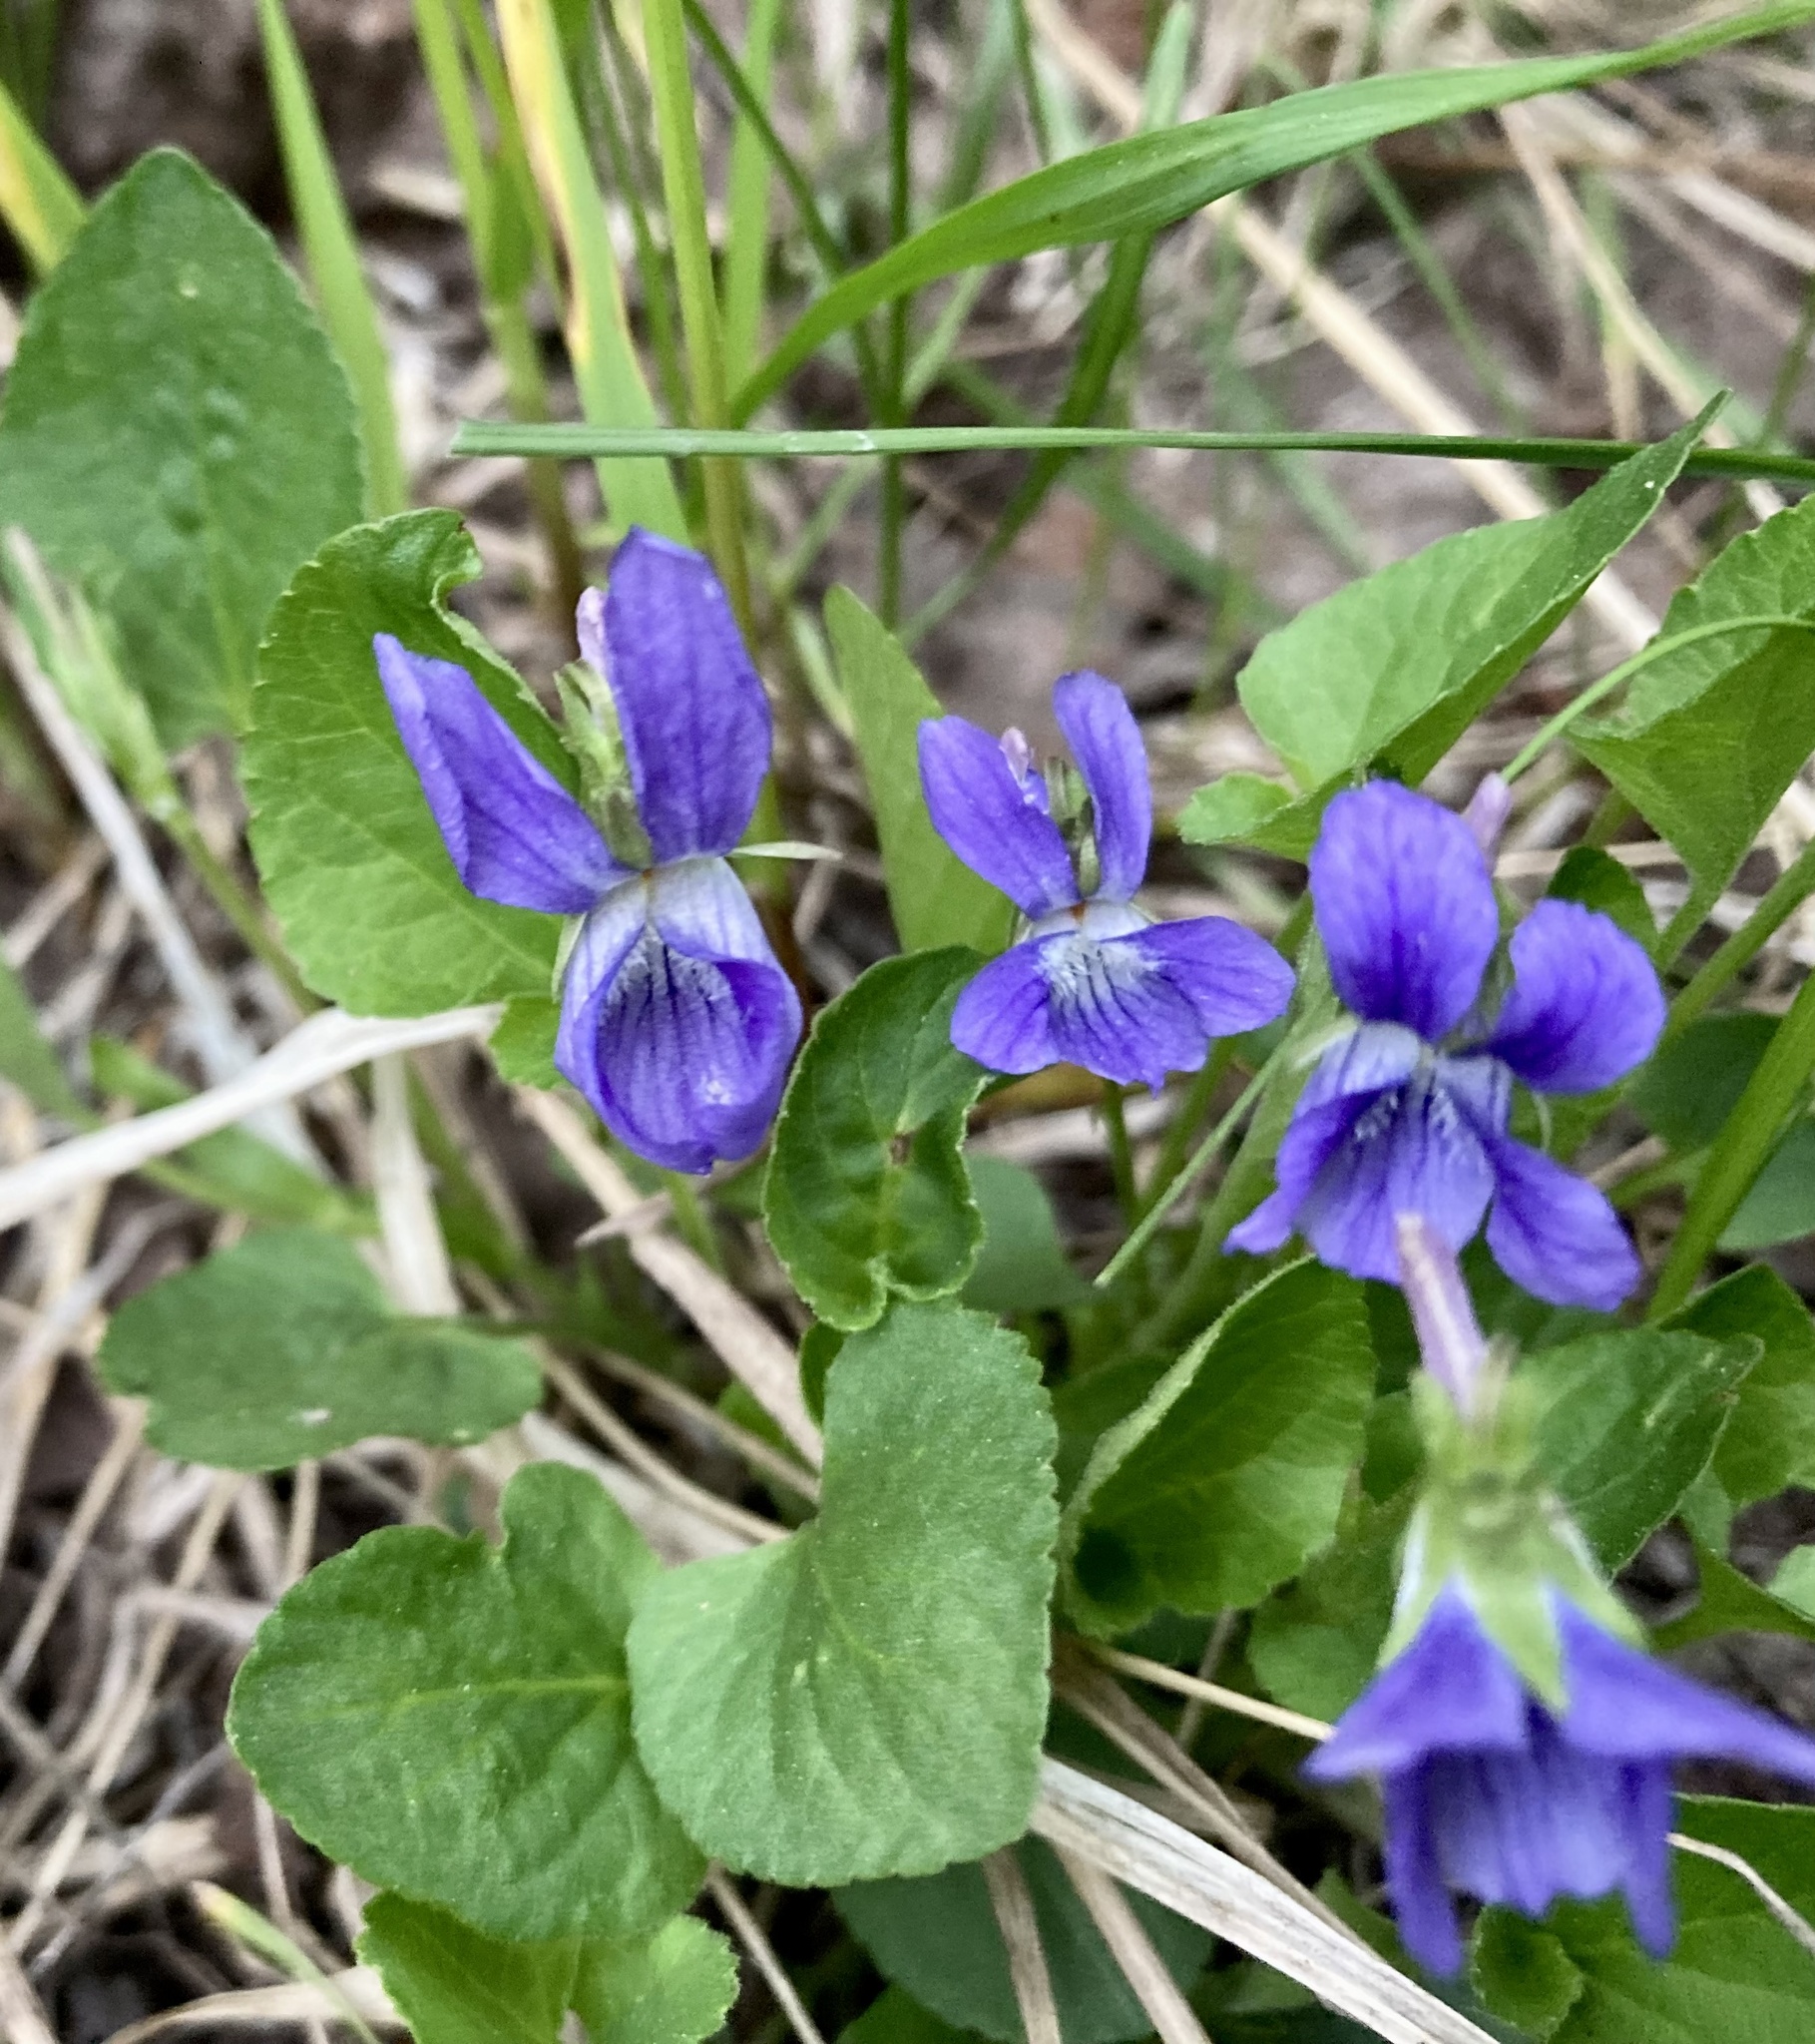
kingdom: Plantae
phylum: Tracheophyta
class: Magnoliopsida
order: Malpighiales
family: Violaceae
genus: Viola
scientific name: Viola adunca
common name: Sand violet
